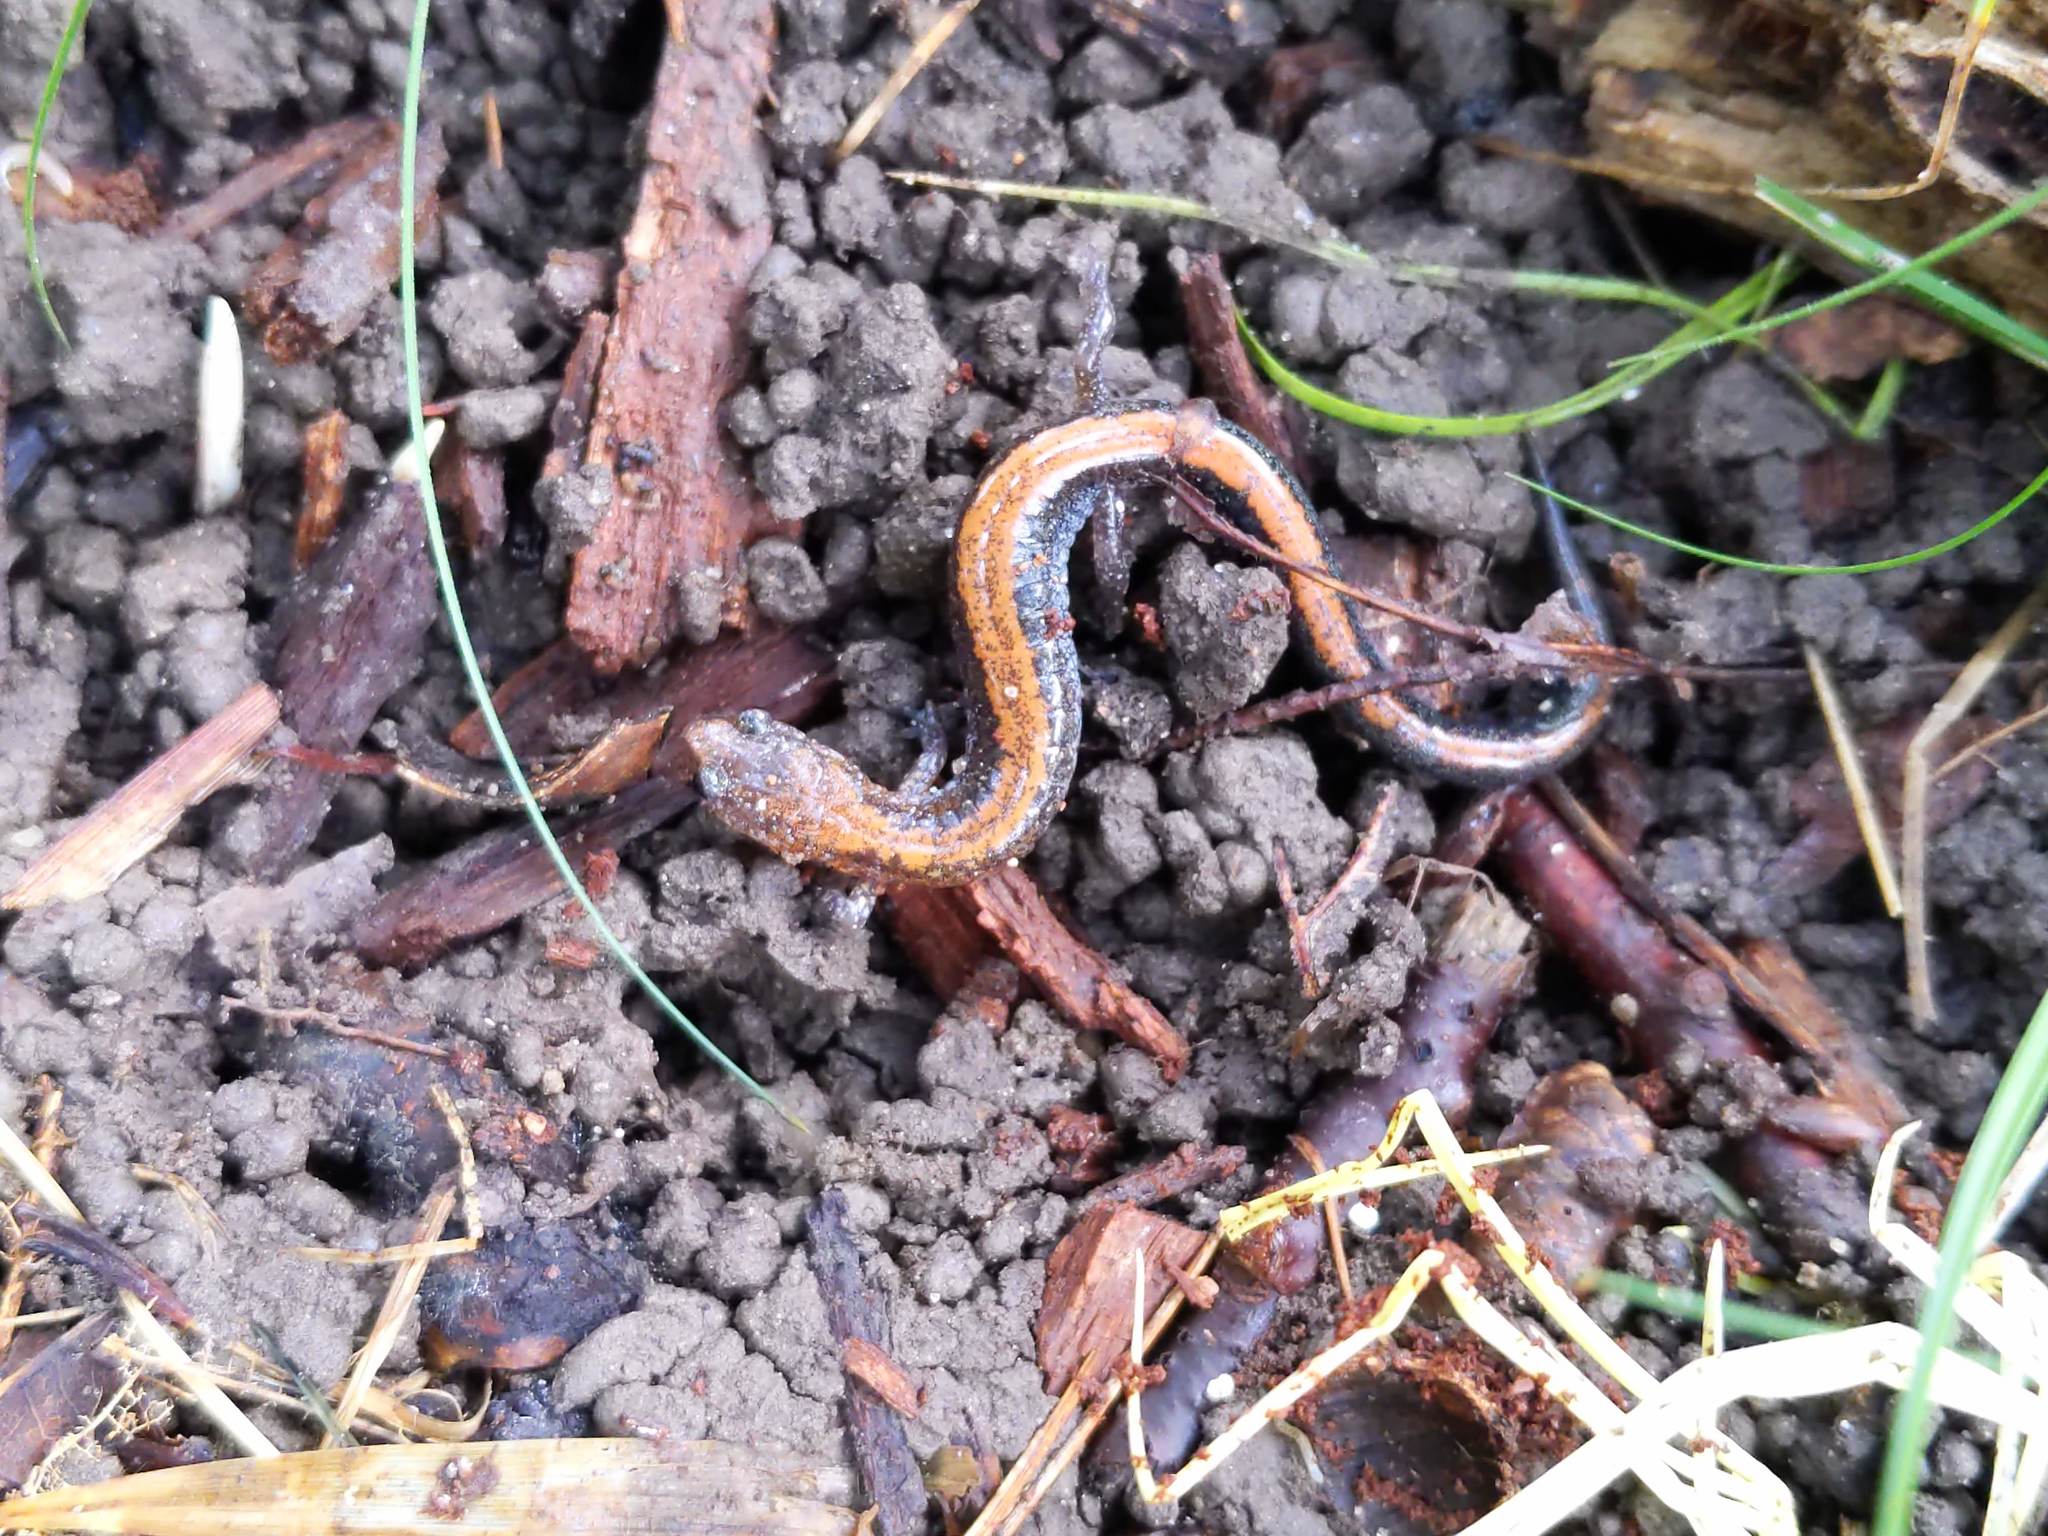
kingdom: Animalia
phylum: Chordata
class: Amphibia
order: Caudata
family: Plethodontidae
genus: Plethodon
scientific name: Plethodon cinereus
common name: Redback salamander
